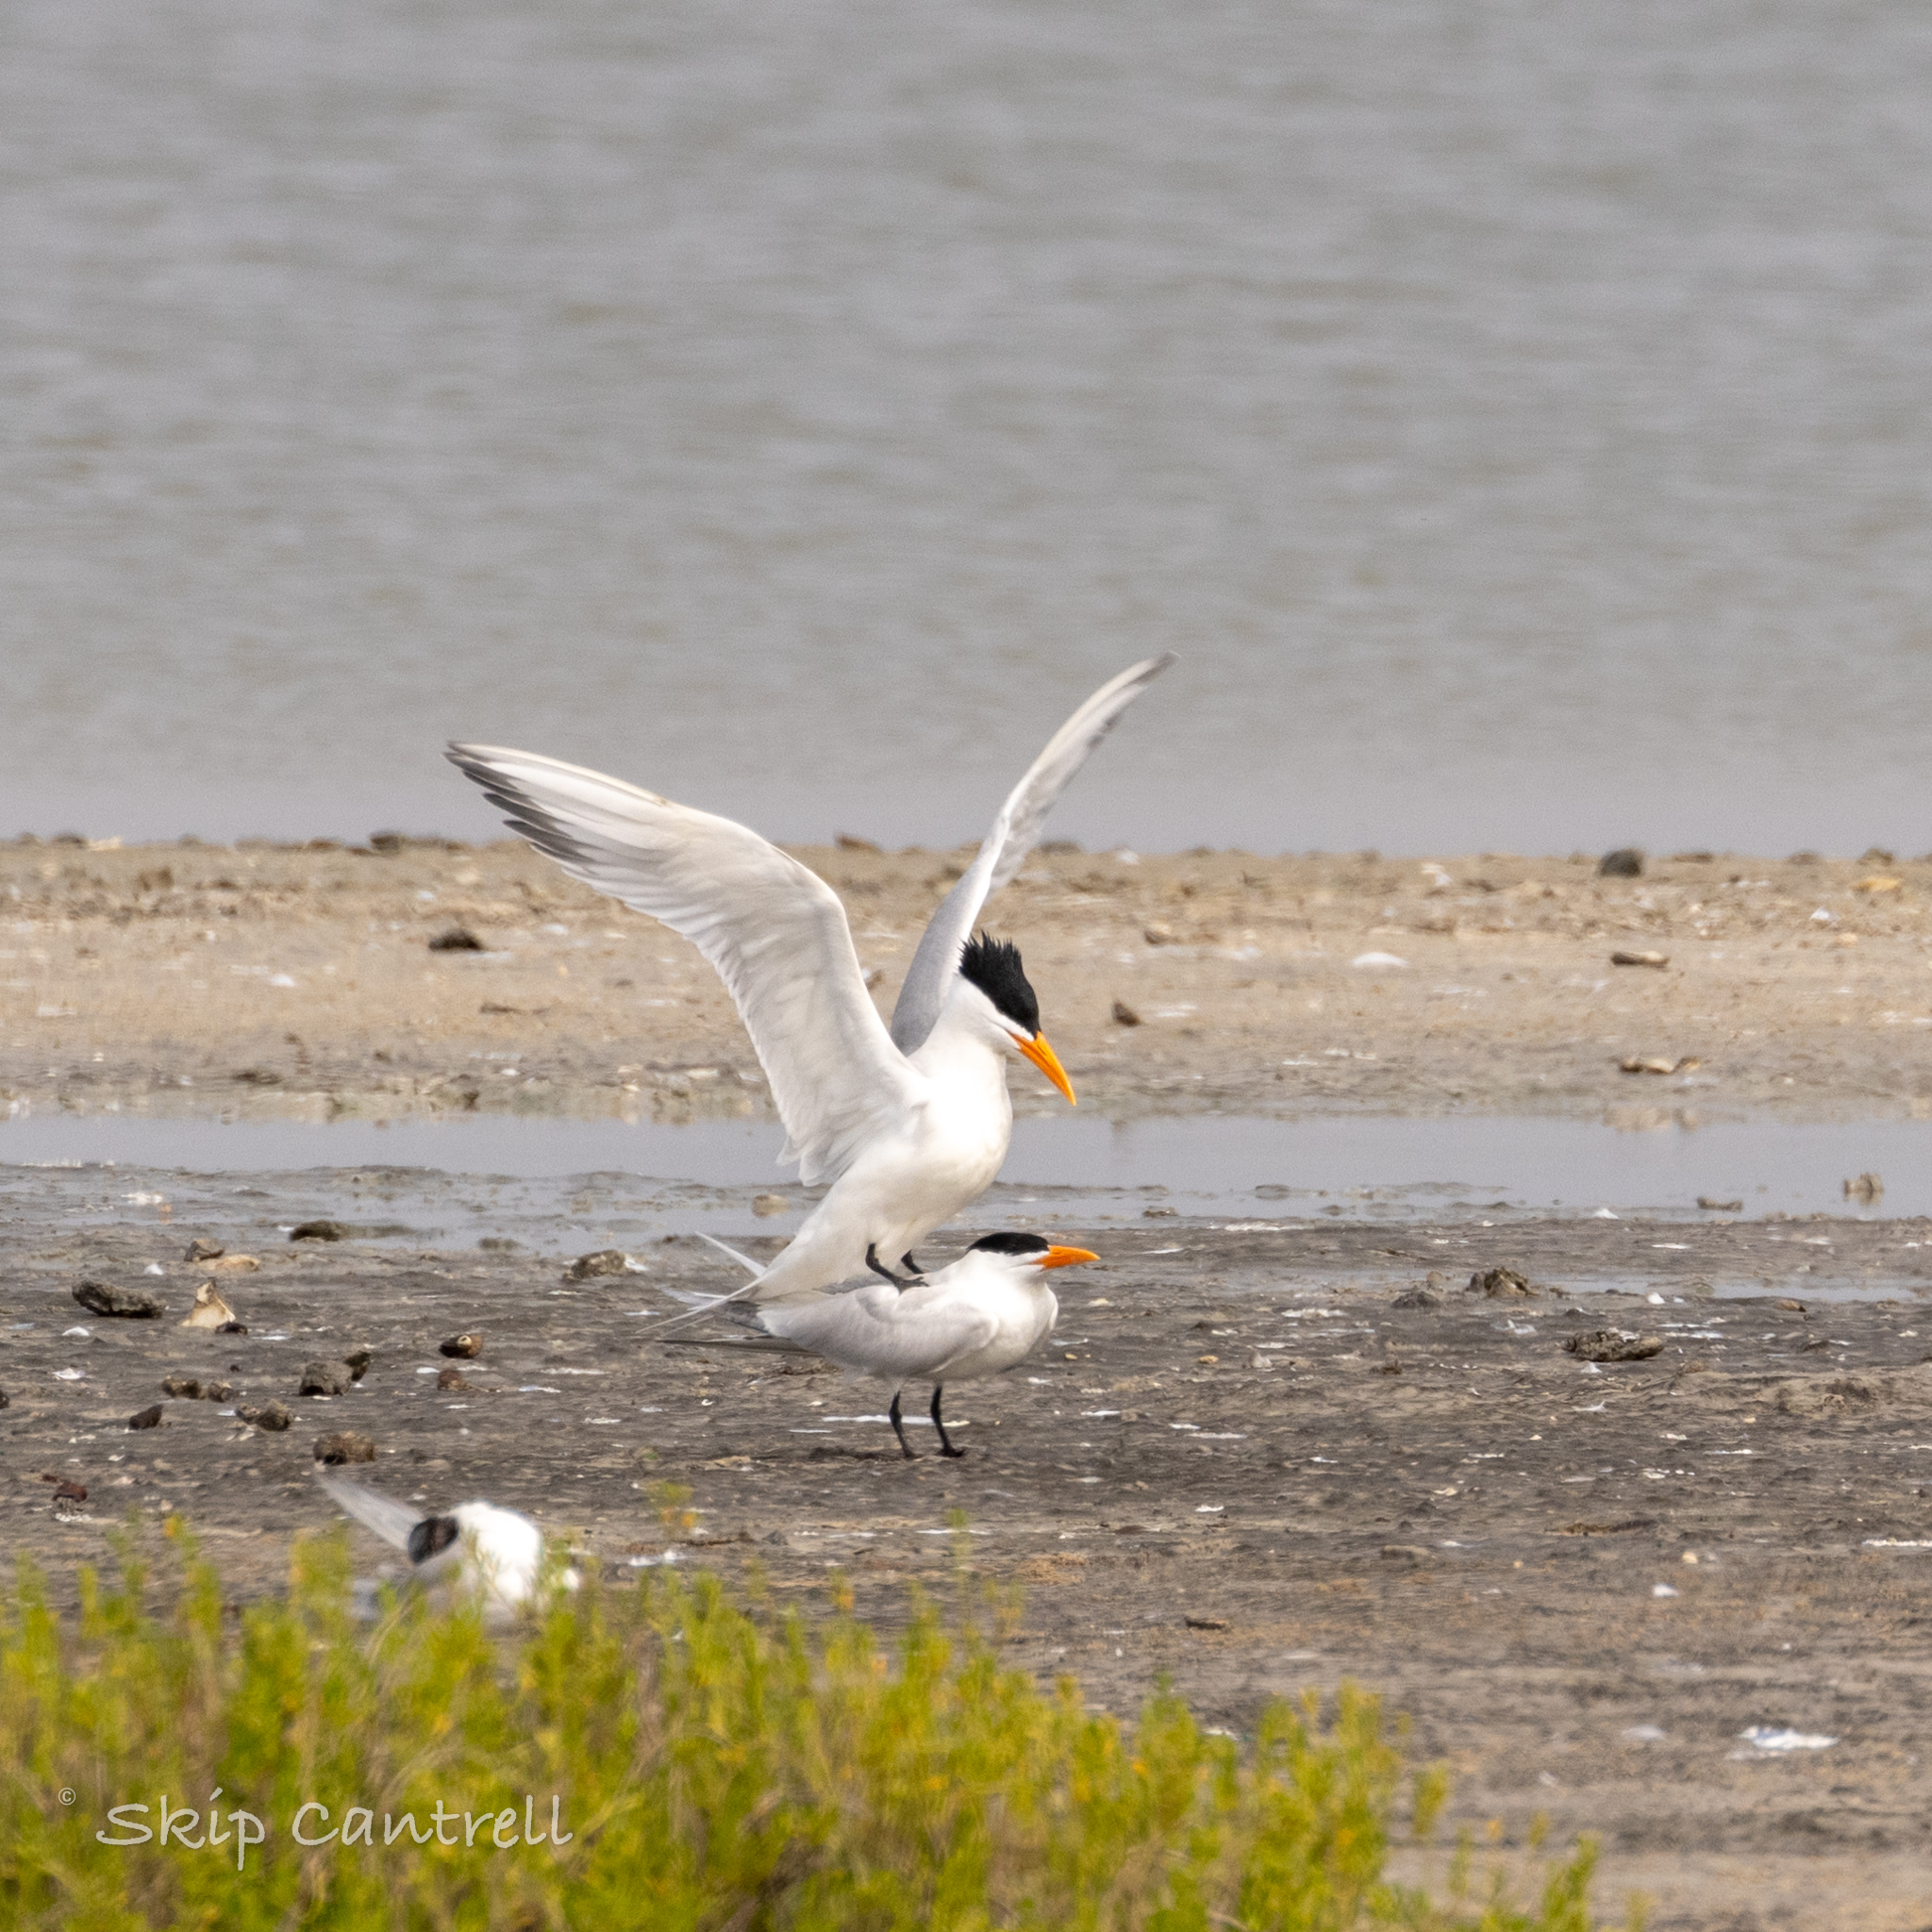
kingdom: Animalia
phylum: Chordata
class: Aves
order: Charadriiformes
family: Laridae
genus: Thalasseus
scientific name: Thalasseus maximus
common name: Royal tern
